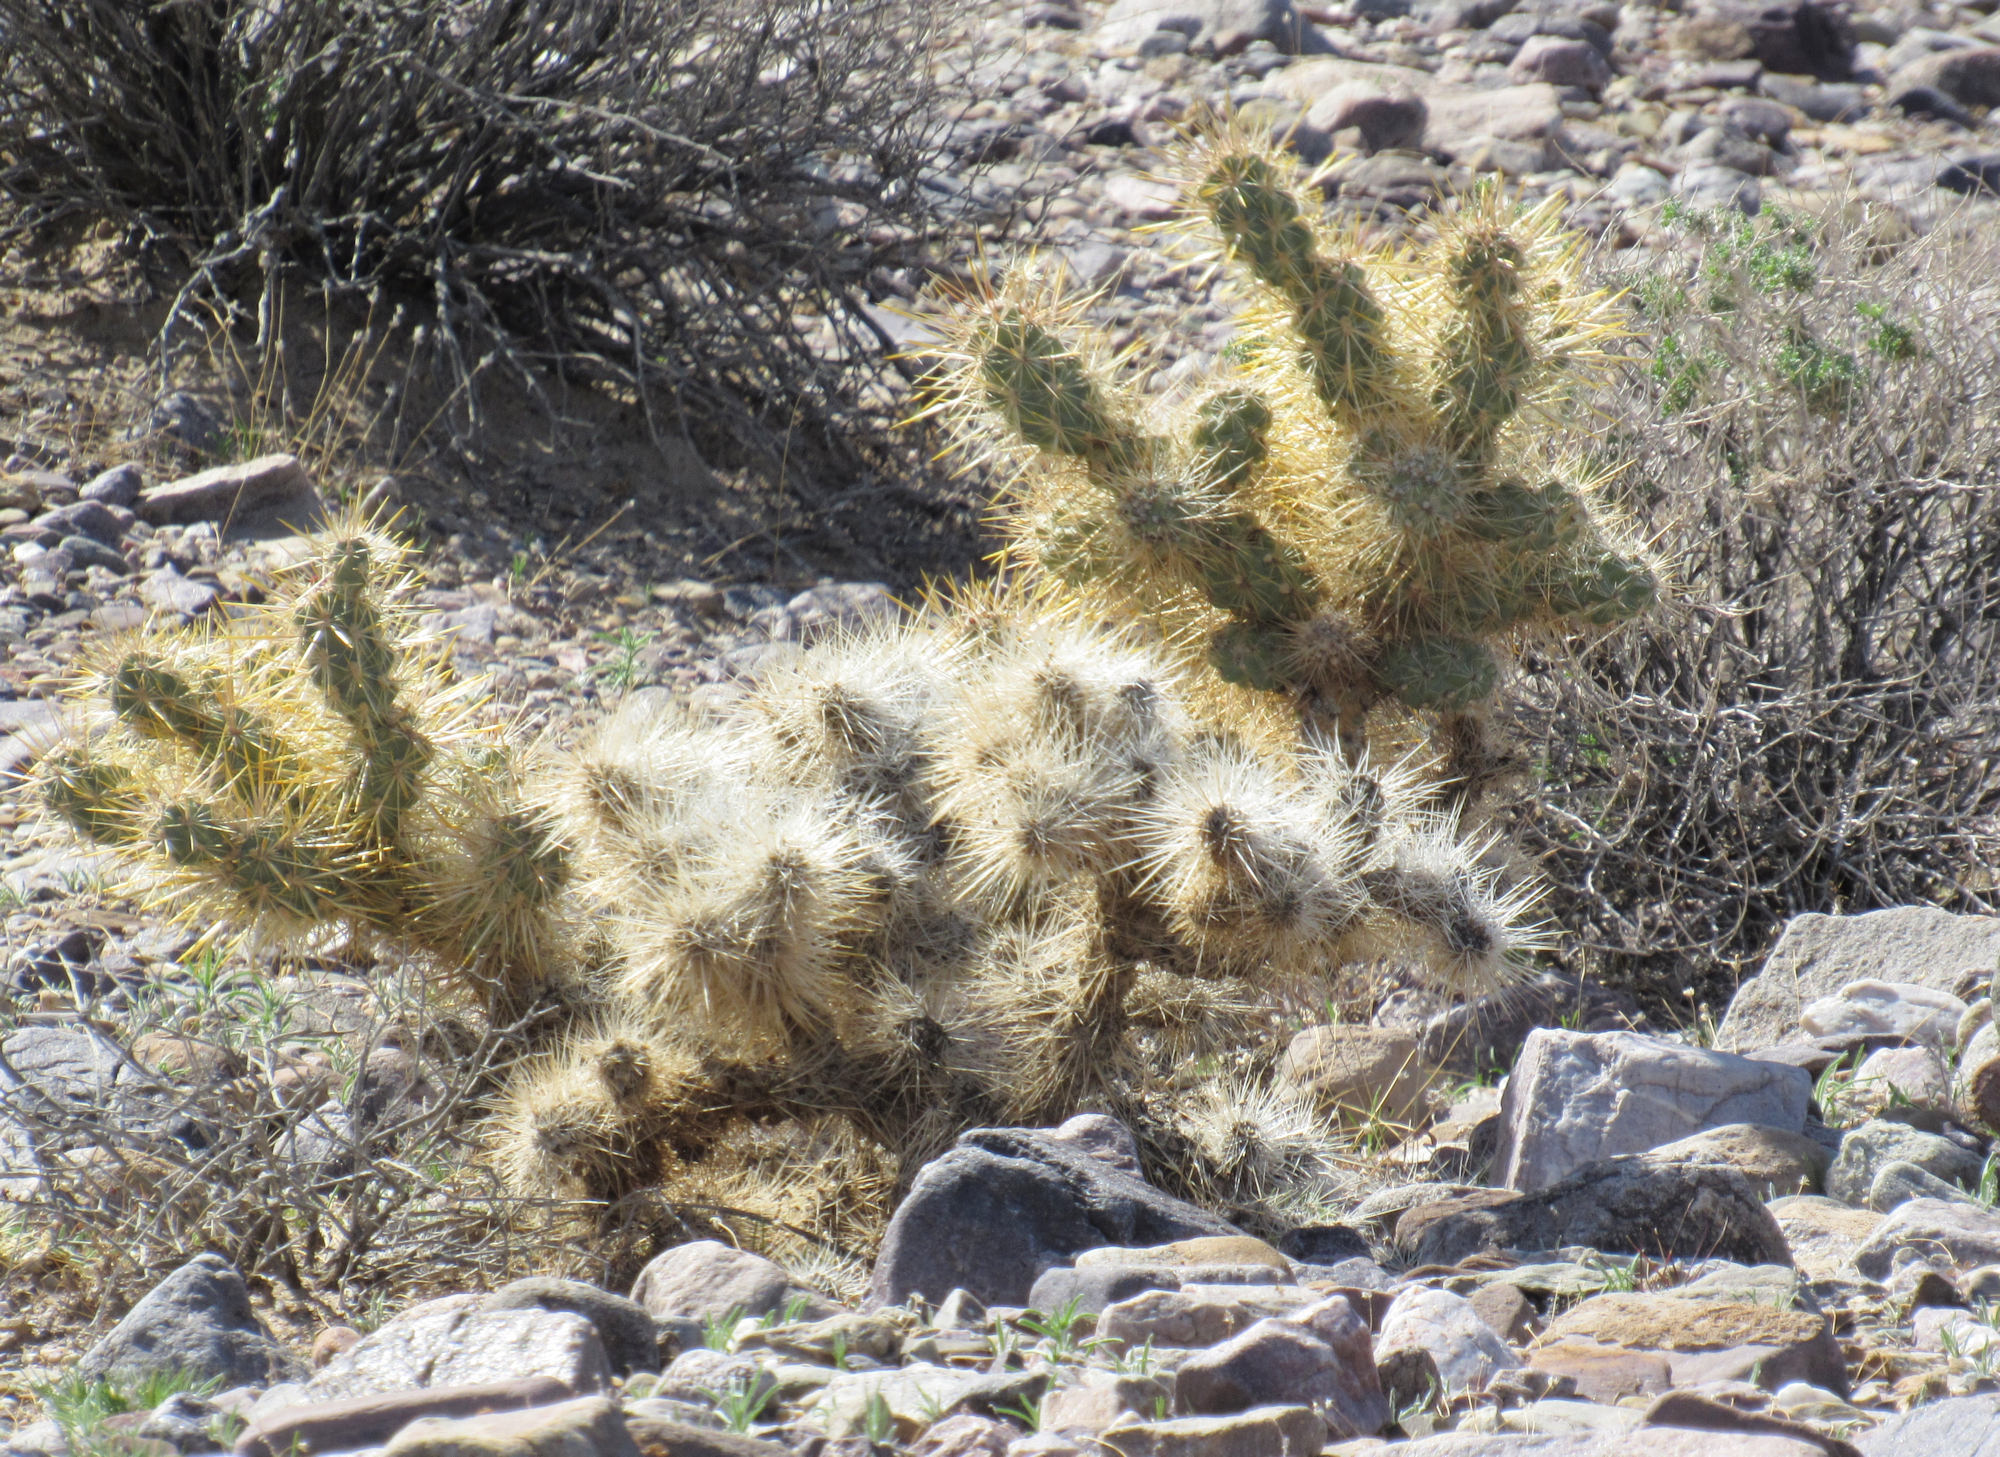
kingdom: Plantae
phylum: Tracheophyta
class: Magnoliopsida
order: Caryophyllales
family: Cactaceae
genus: Cylindropuntia
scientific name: Cylindropuntia echinocarpa
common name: Ground cholla
